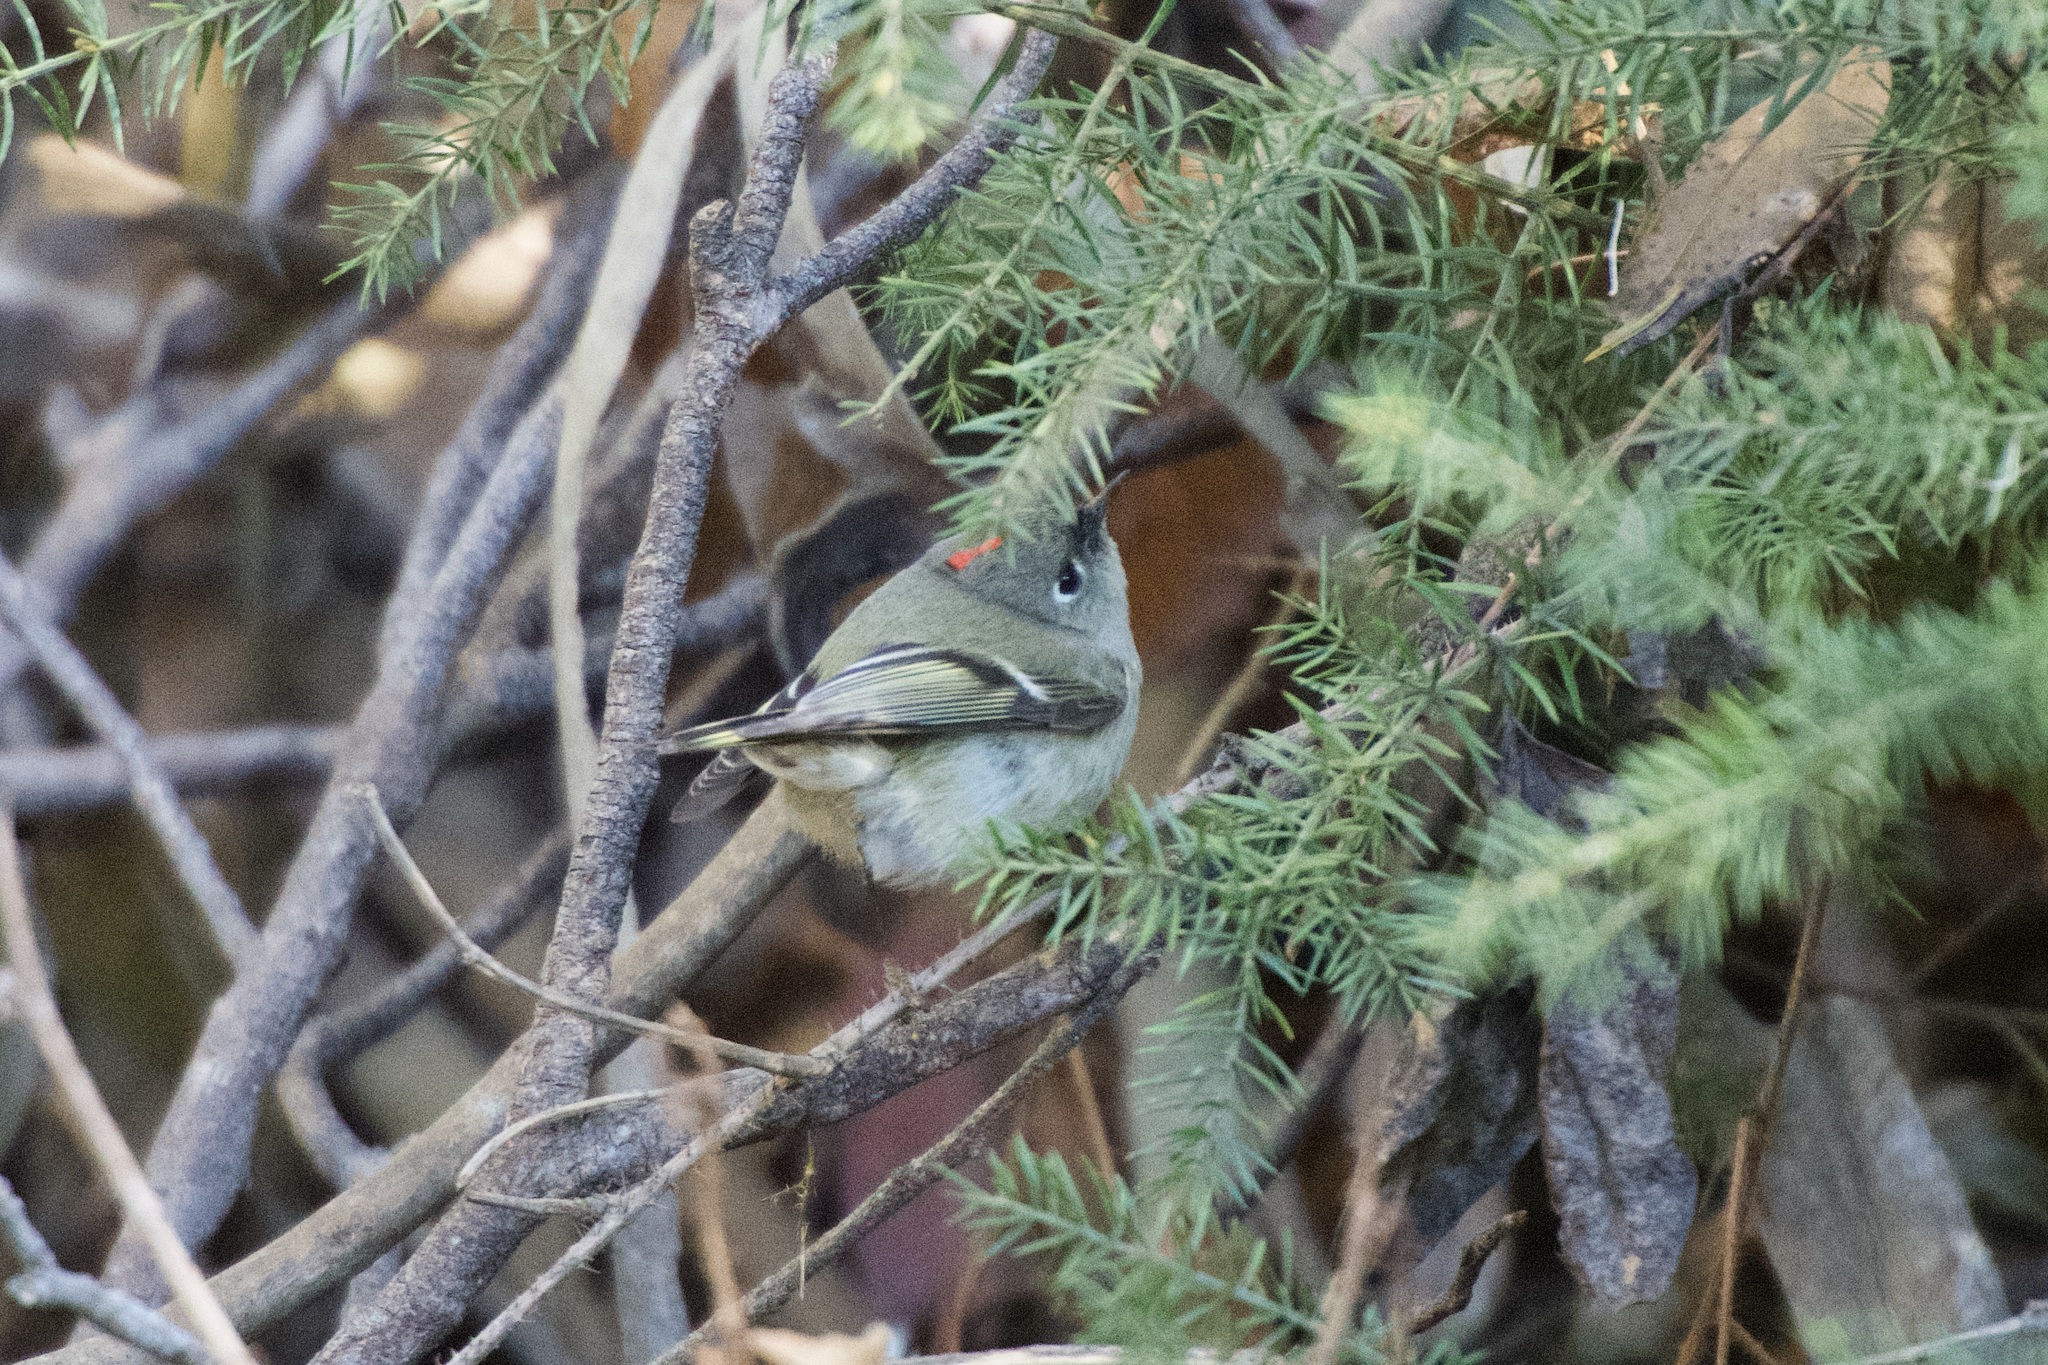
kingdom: Animalia
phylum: Chordata
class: Aves
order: Passeriformes
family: Regulidae
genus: Regulus
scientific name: Regulus calendula
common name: Ruby-crowned kinglet
